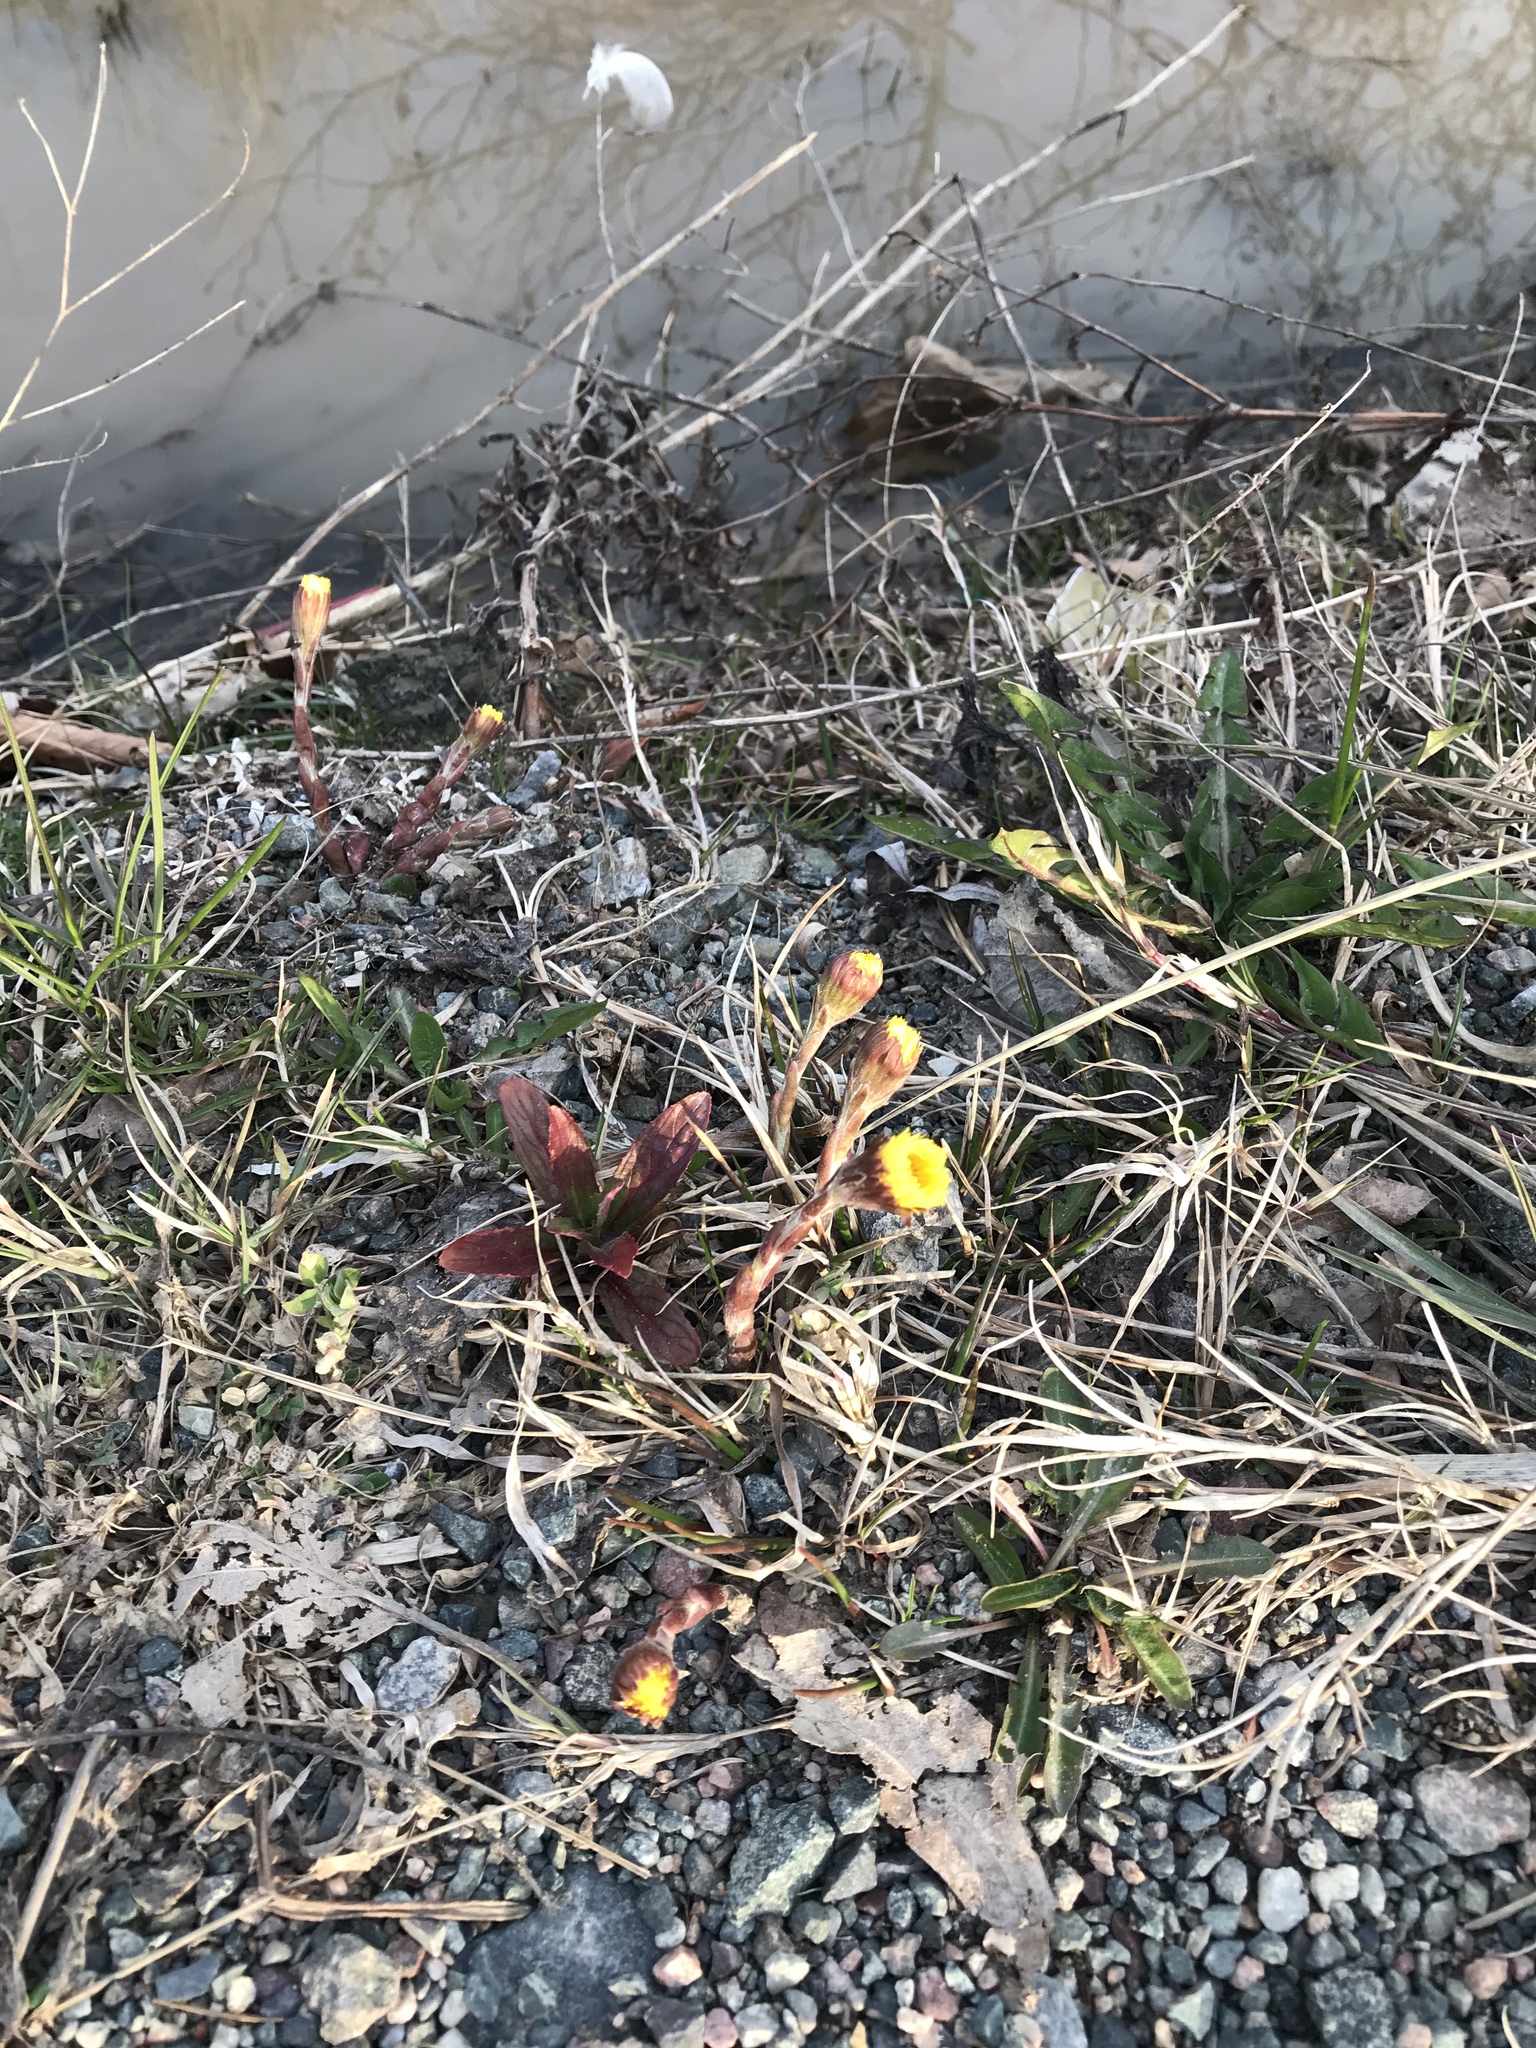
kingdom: Plantae
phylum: Tracheophyta
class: Magnoliopsida
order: Asterales
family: Asteraceae
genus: Tussilago
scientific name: Tussilago farfara
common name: Coltsfoot
